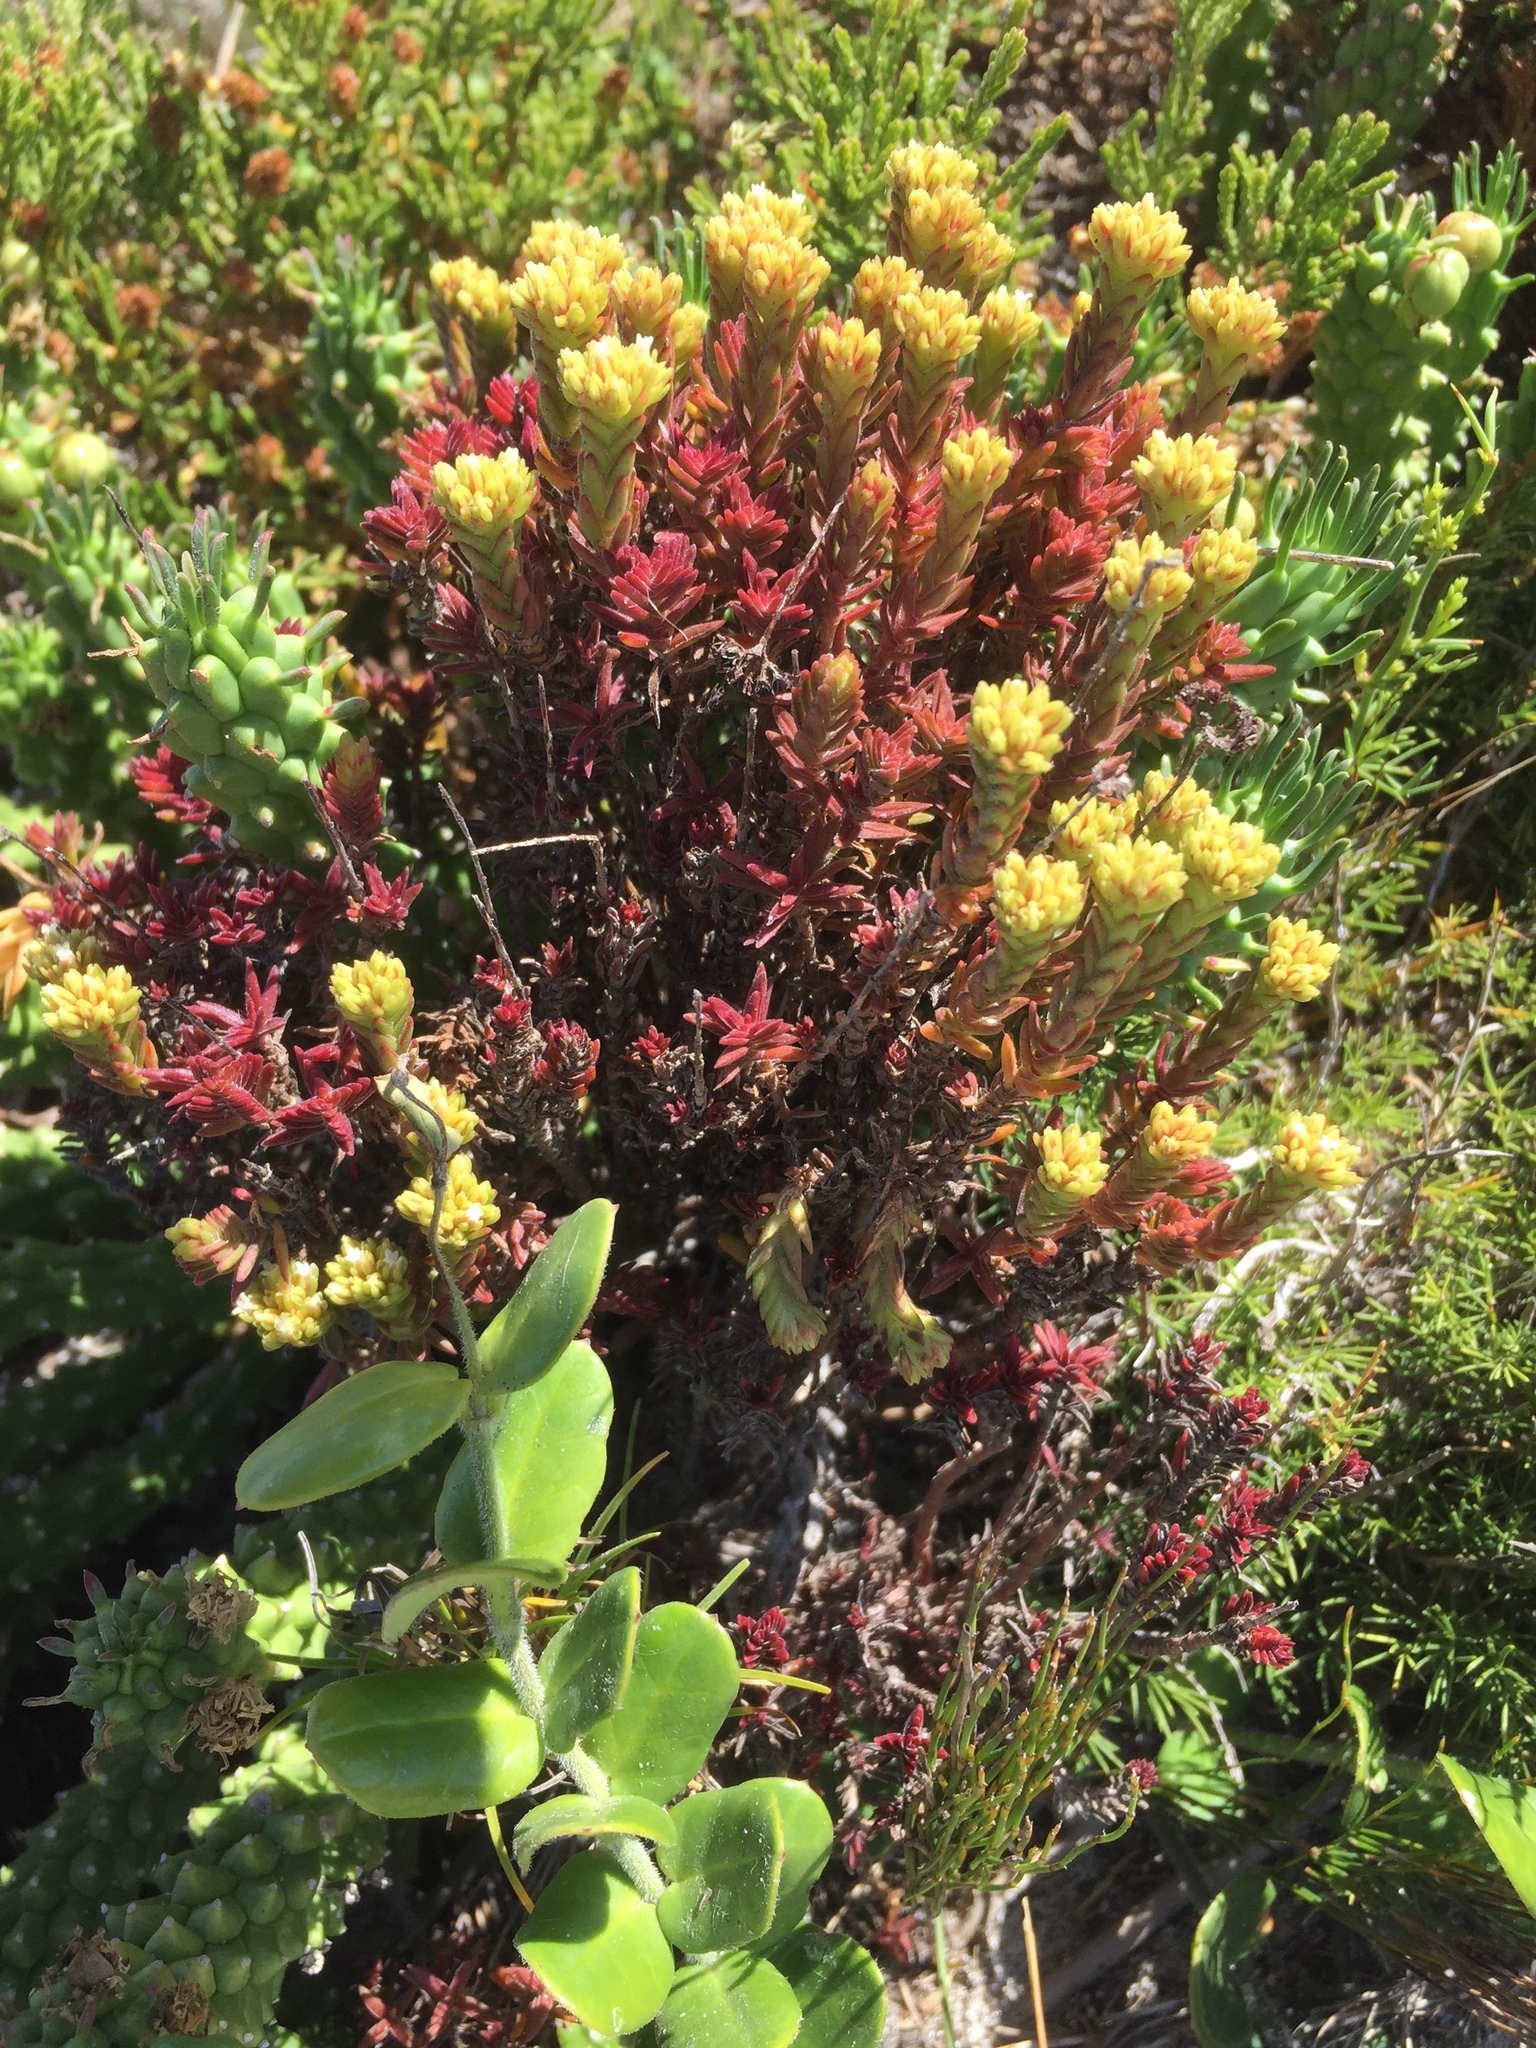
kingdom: Plantae
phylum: Tracheophyta
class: Magnoliopsida
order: Saxifragales
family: Crassulaceae
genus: Crassula
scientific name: Crassula flava
